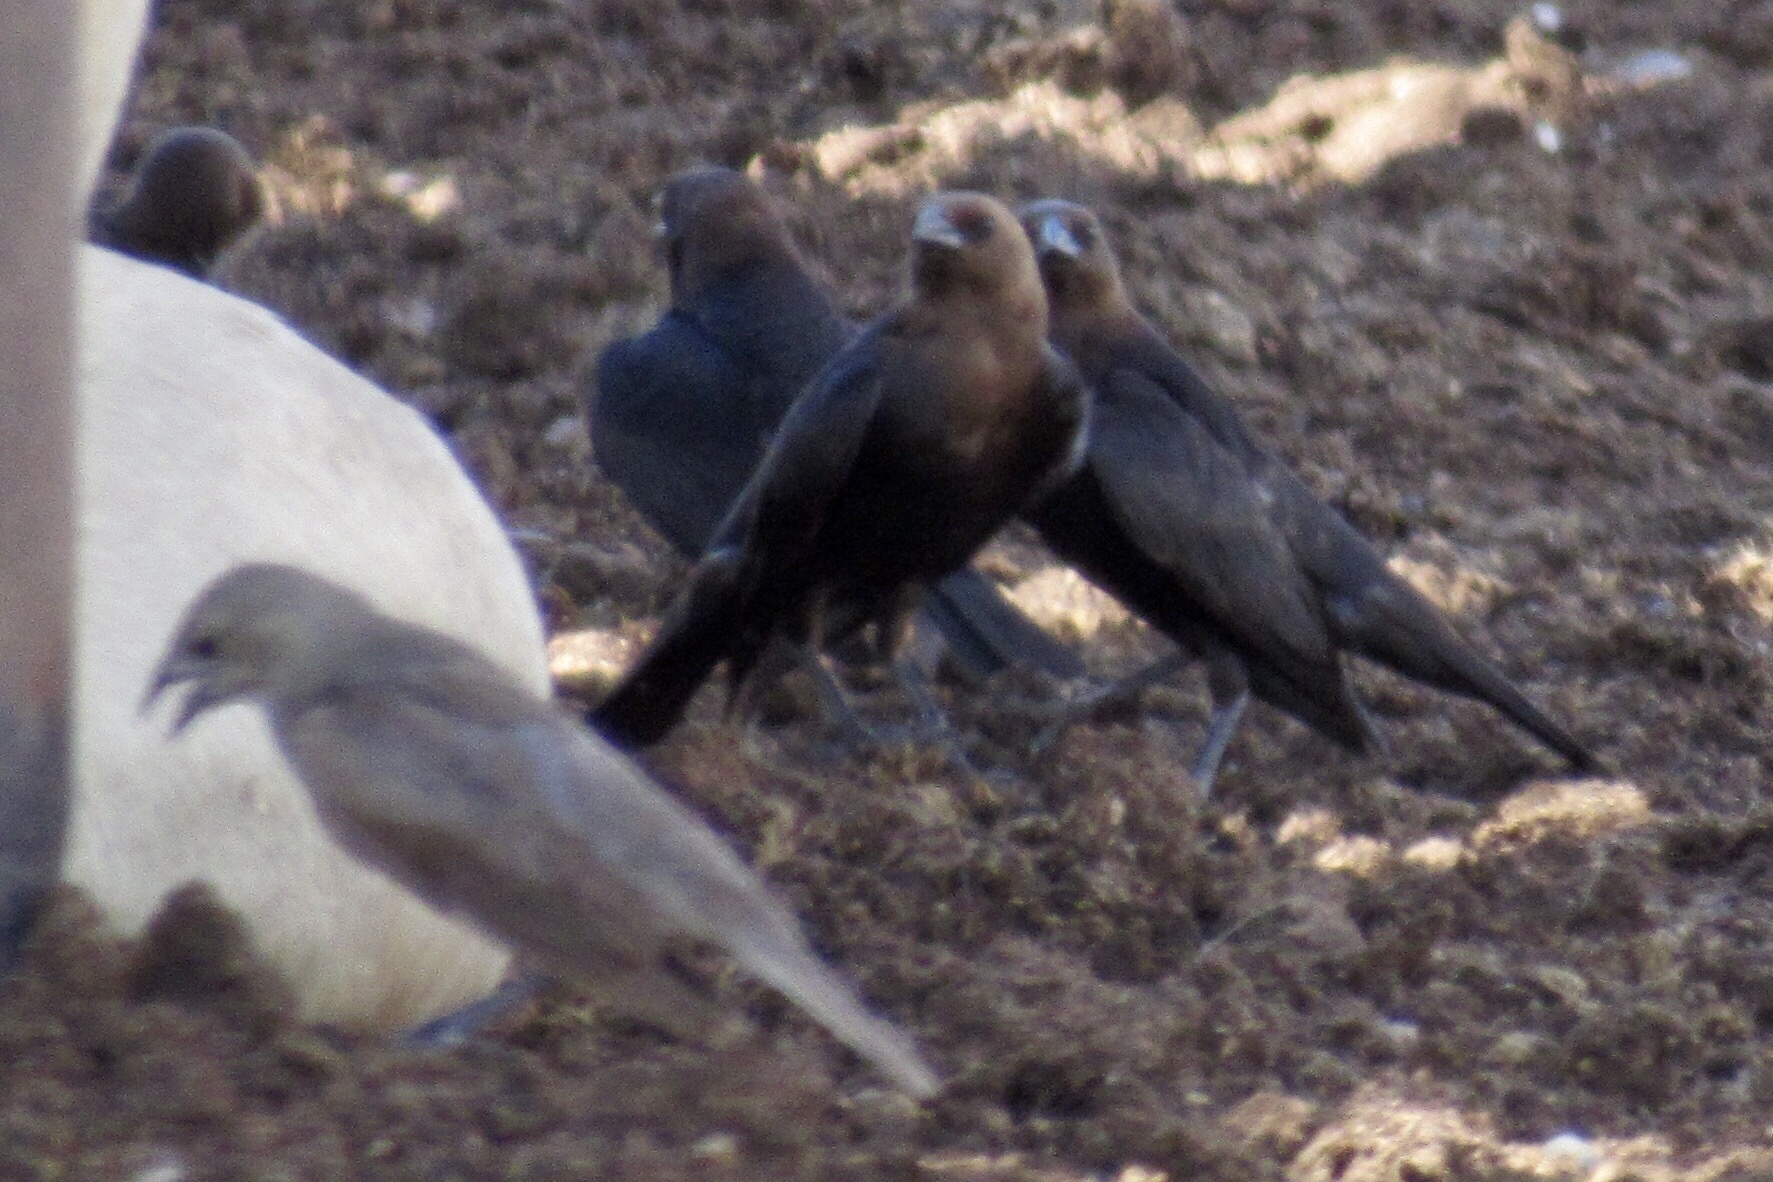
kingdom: Animalia
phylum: Chordata
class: Aves
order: Passeriformes
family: Icteridae
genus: Molothrus
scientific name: Molothrus ater
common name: Brown-headed cowbird
